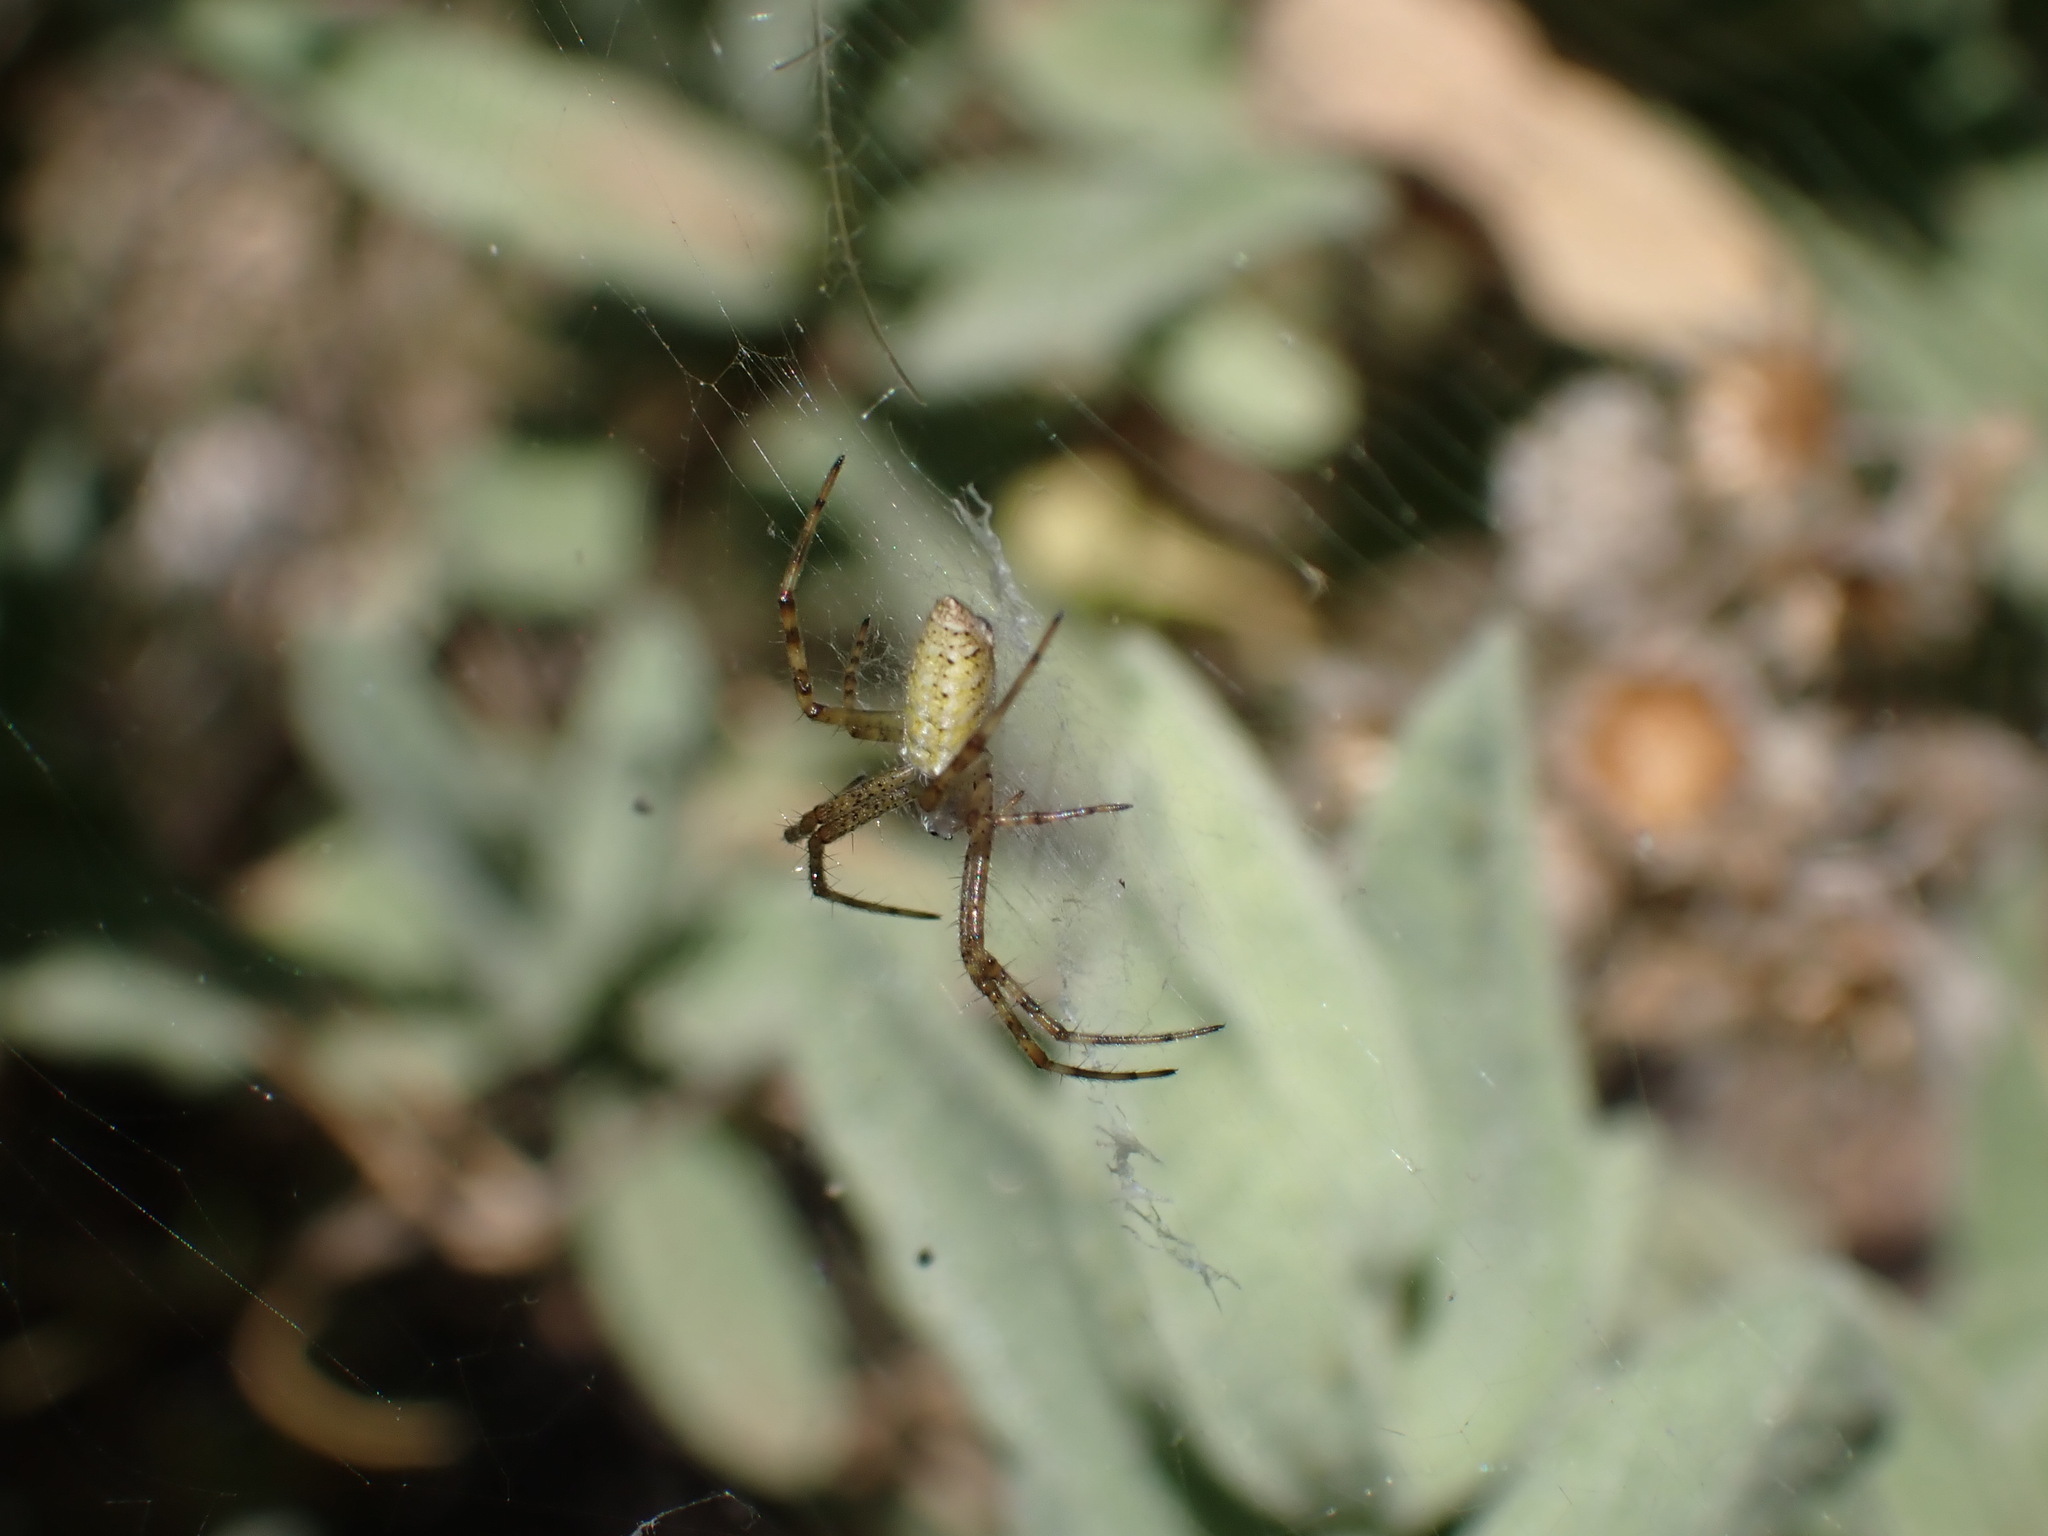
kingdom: Animalia
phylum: Arthropoda
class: Arachnida
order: Araneae
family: Araneidae
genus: Argiope
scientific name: Argiope bruennichi
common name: Wasp spider
